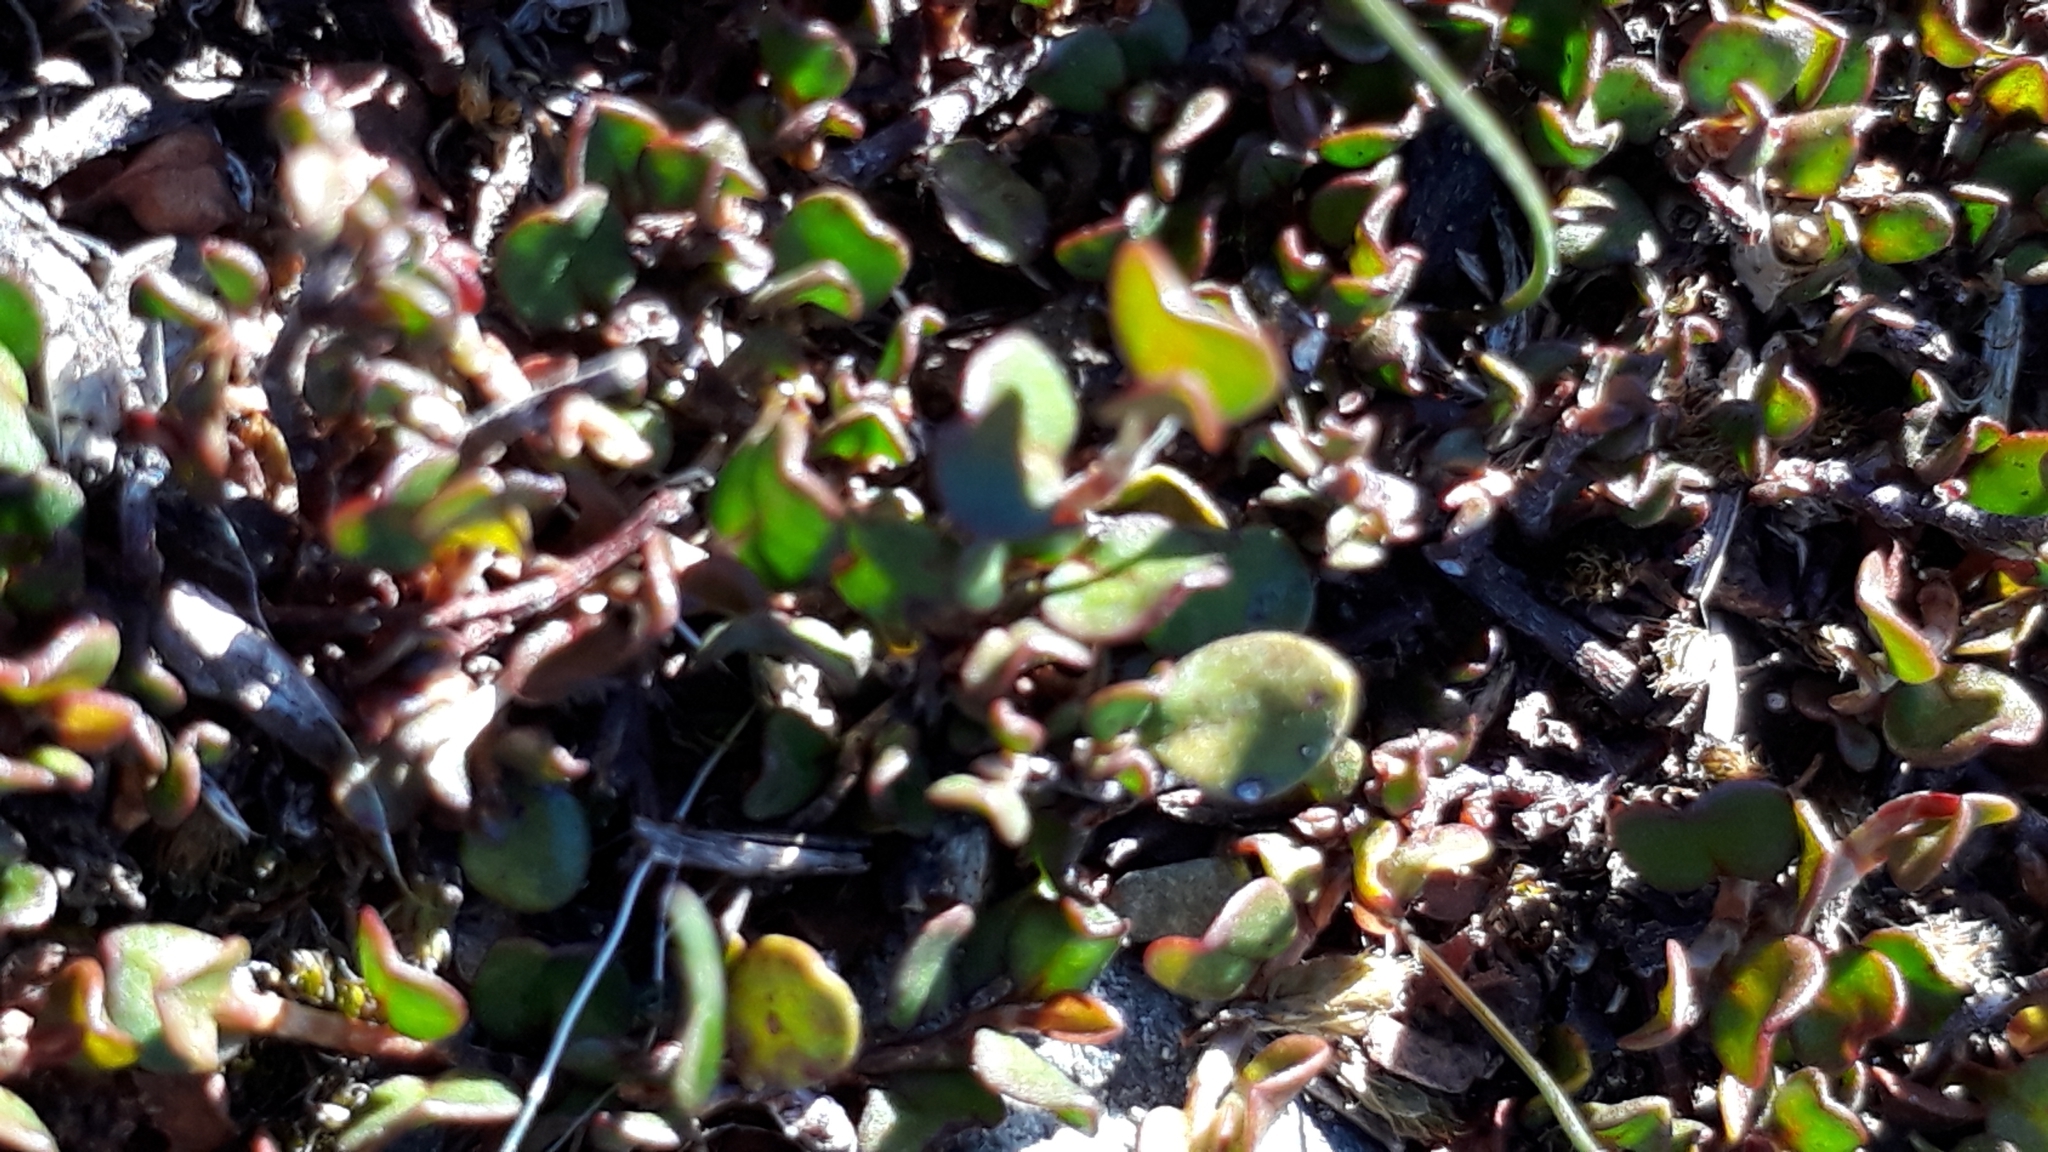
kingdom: Plantae
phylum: Tracheophyta
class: Magnoliopsida
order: Caryophyllales
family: Polygonaceae
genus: Muehlenbeckia
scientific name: Muehlenbeckia axillaris
